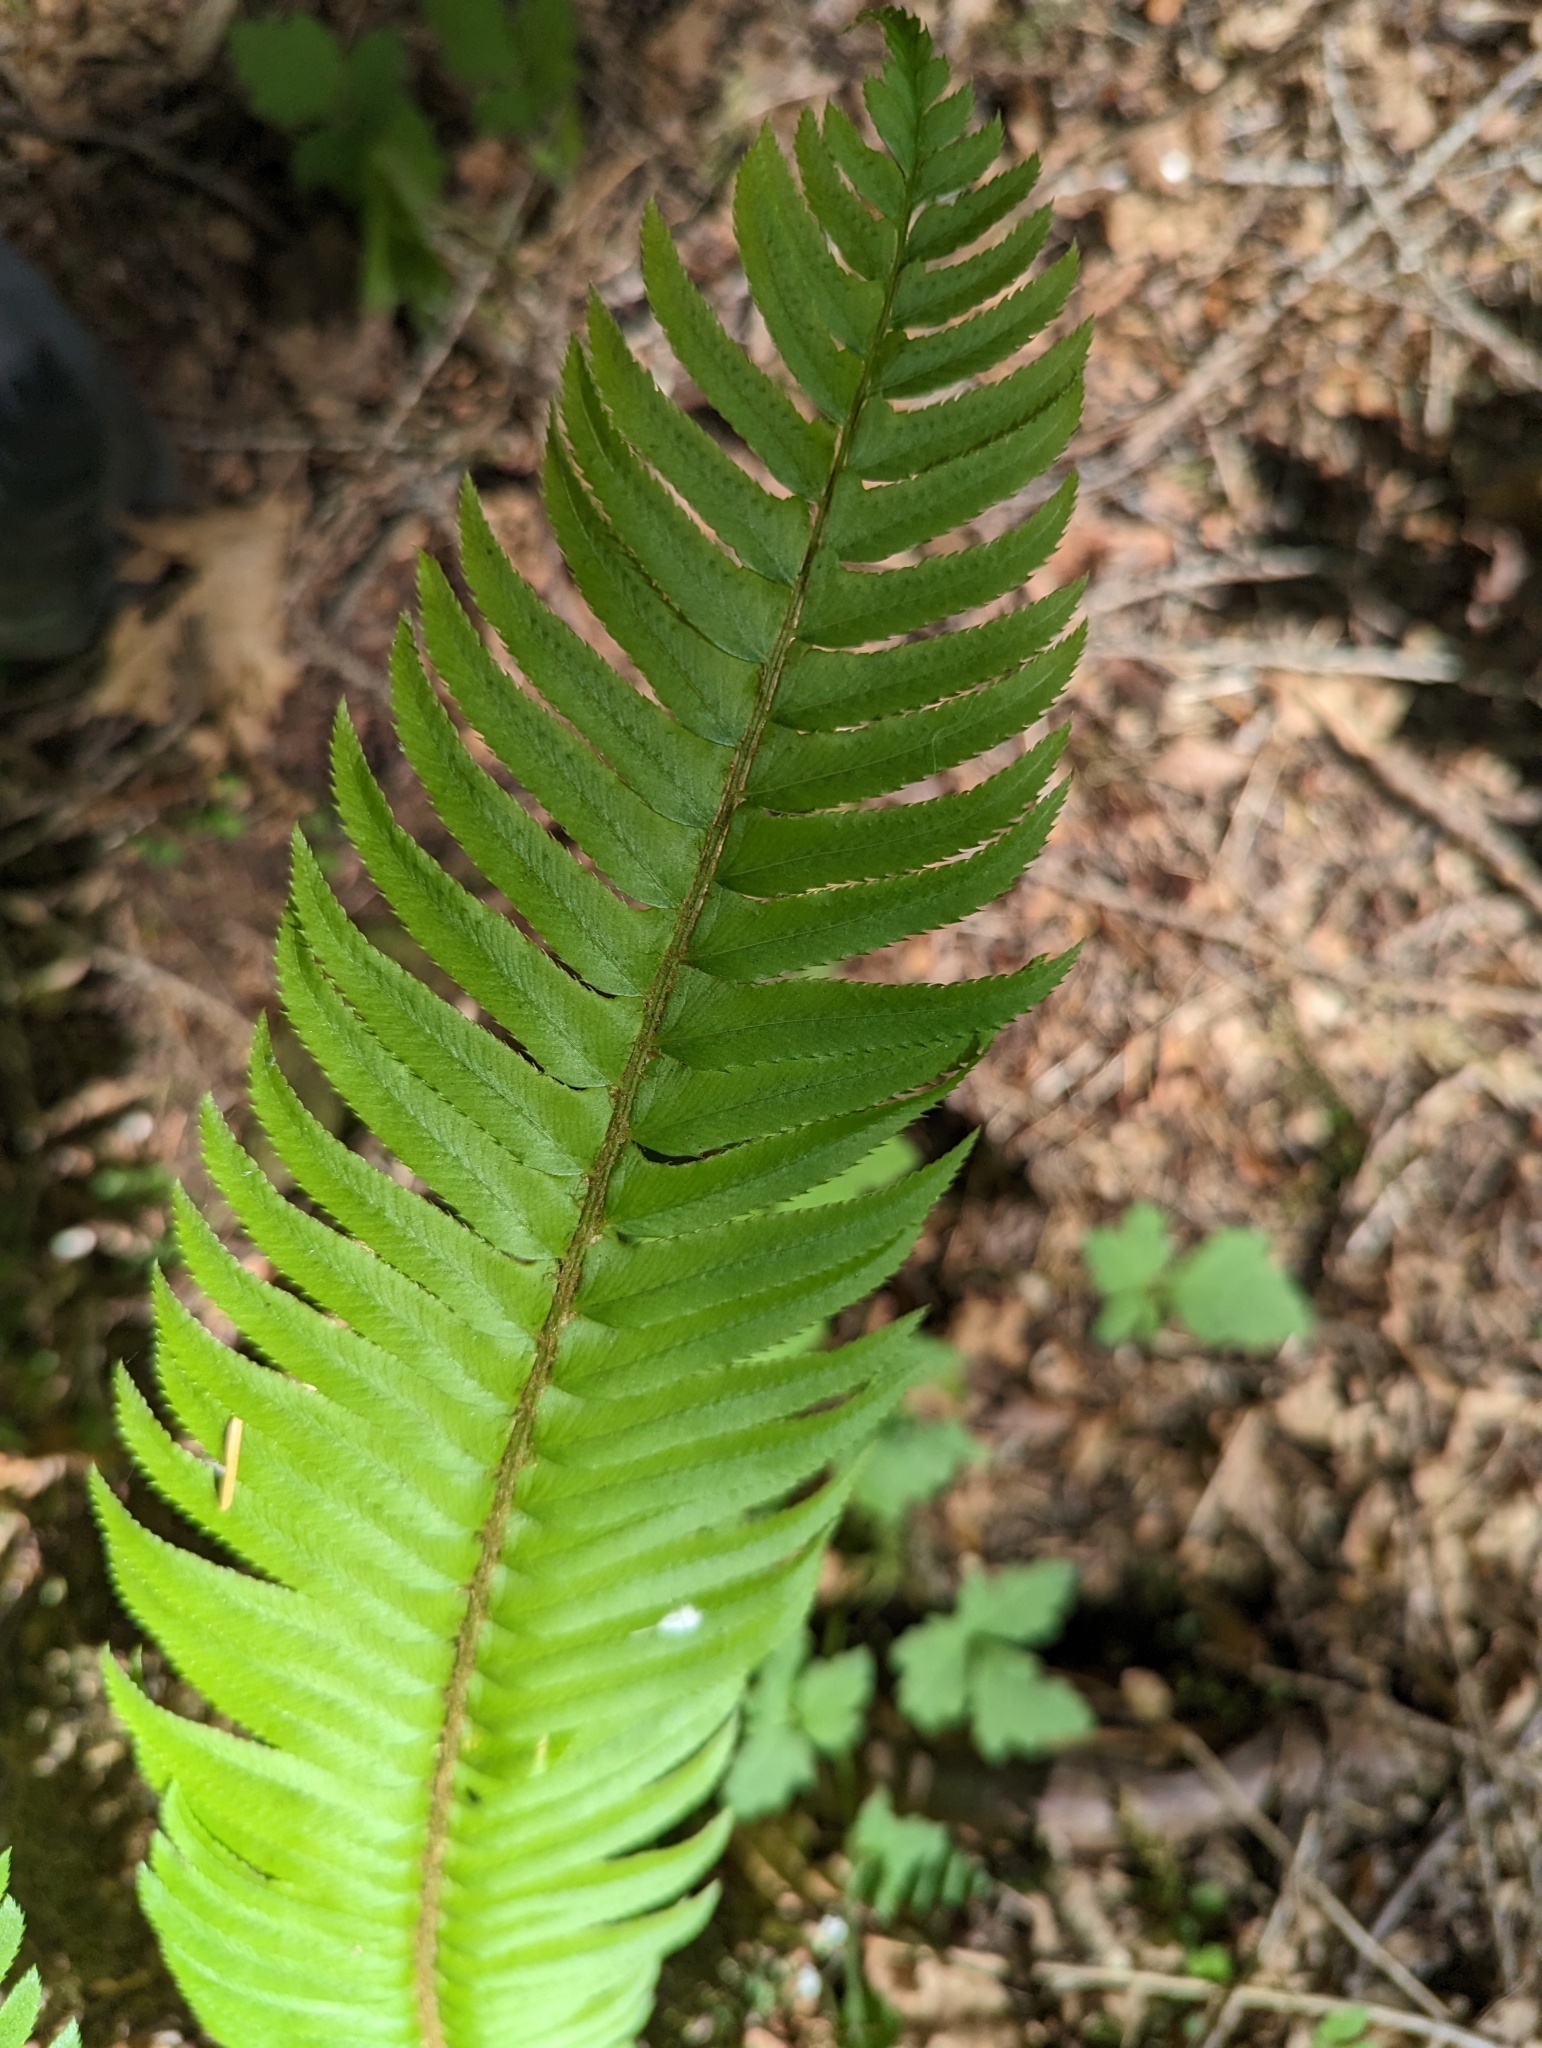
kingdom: Plantae
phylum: Tracheophyta
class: Polypodiopsida
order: Polypodiales
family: Dryopteridaceae
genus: Polystichum
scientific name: Polystichum munitum
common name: Western sword-fern
